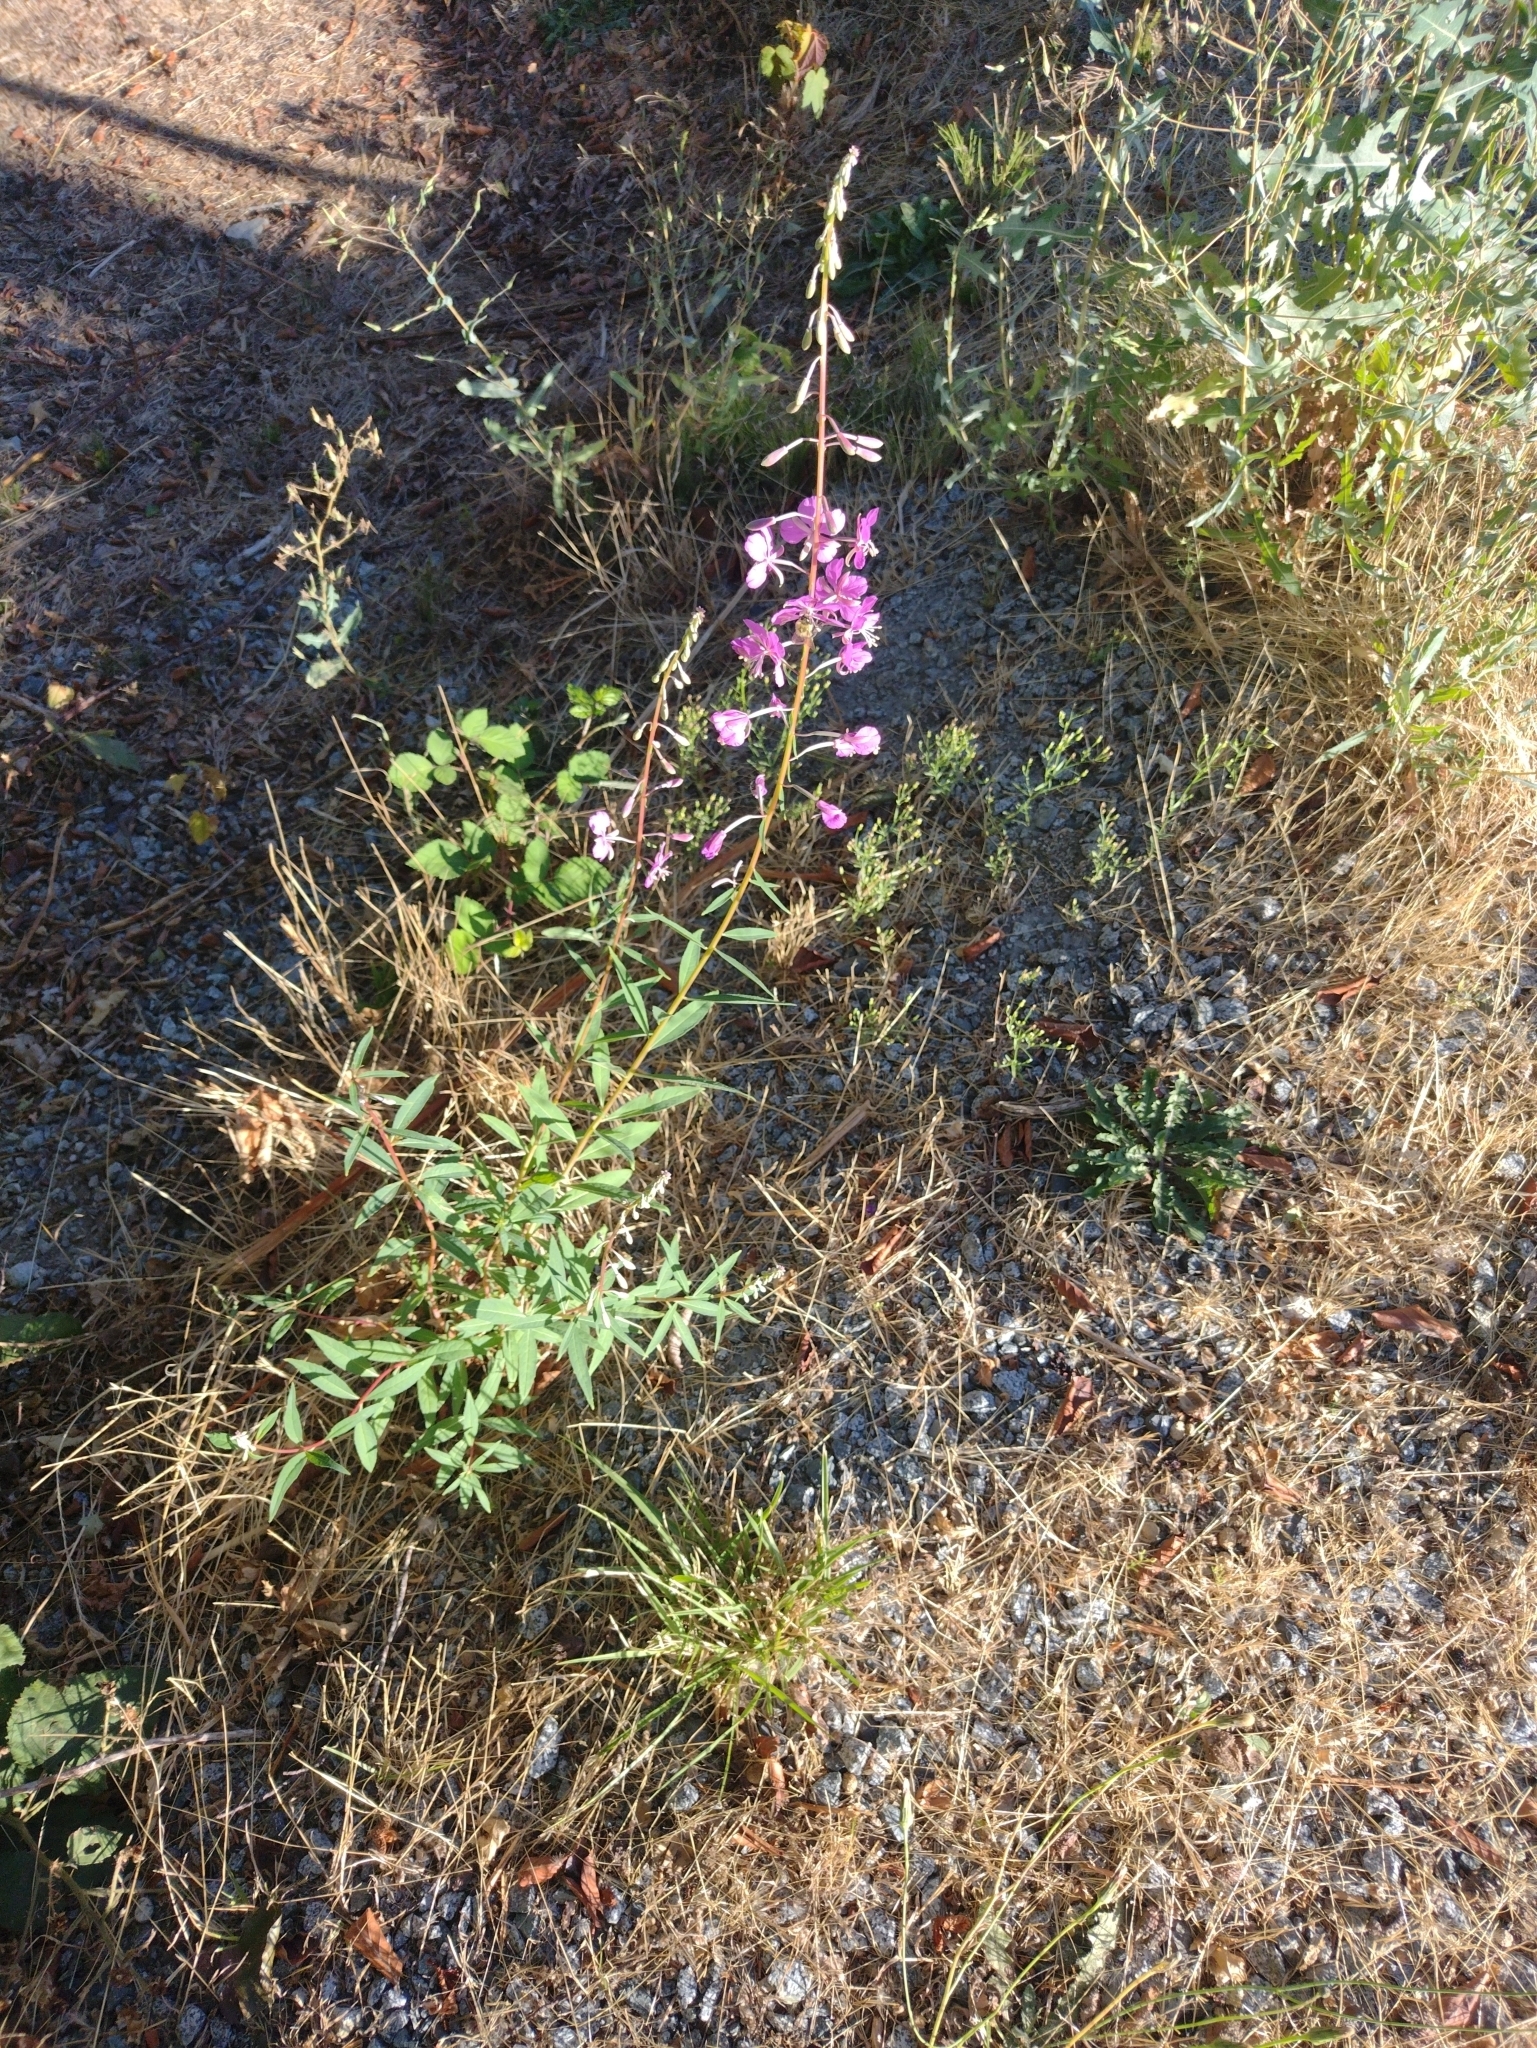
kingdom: Plantae
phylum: Tracheophyta
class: Magnoliopsida
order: Myrtales
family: Onagraceae
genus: Chamaenerion
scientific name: Chamaenerion angustifolium
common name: Fireweed
